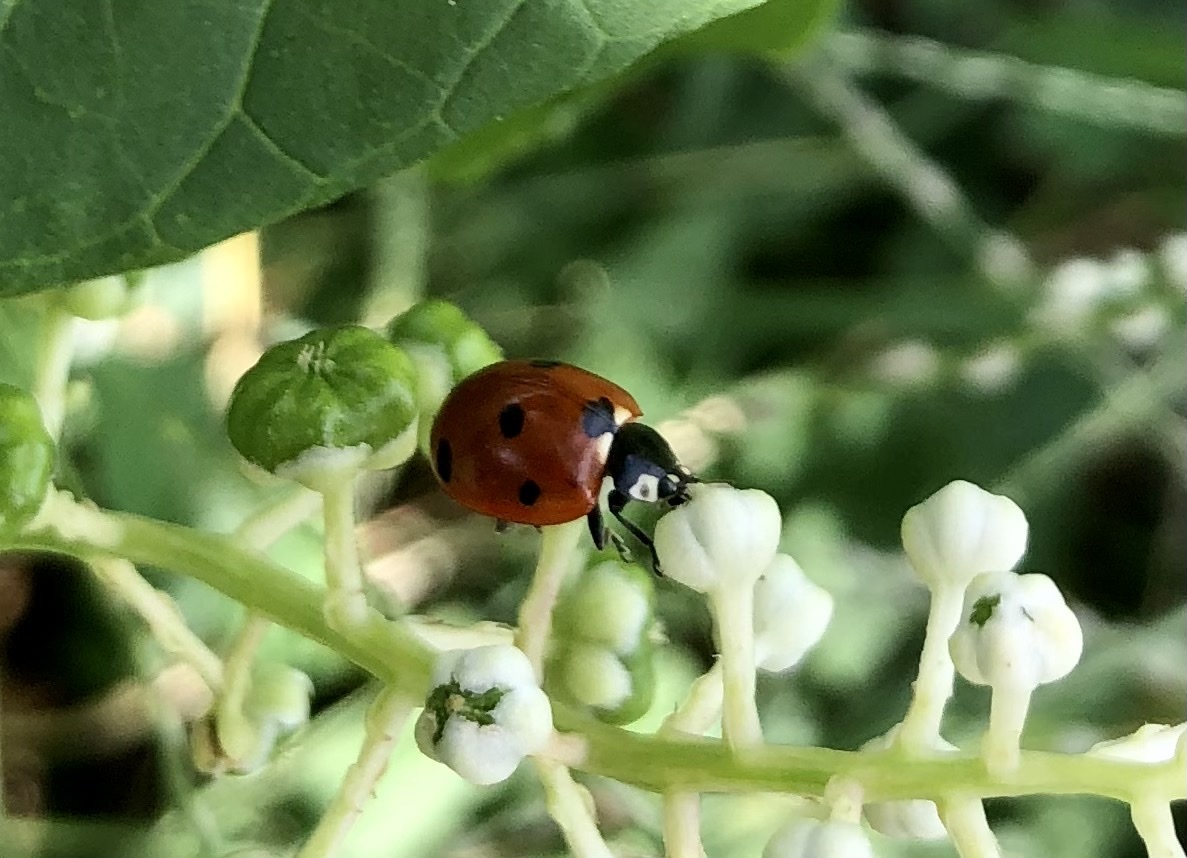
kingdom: Animalia
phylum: Arthropoda
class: Insecta
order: Coleoptera
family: Coccinellidae
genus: Coccinella
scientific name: Coccinella septempunctata
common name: Sevenspotted lady beetle
